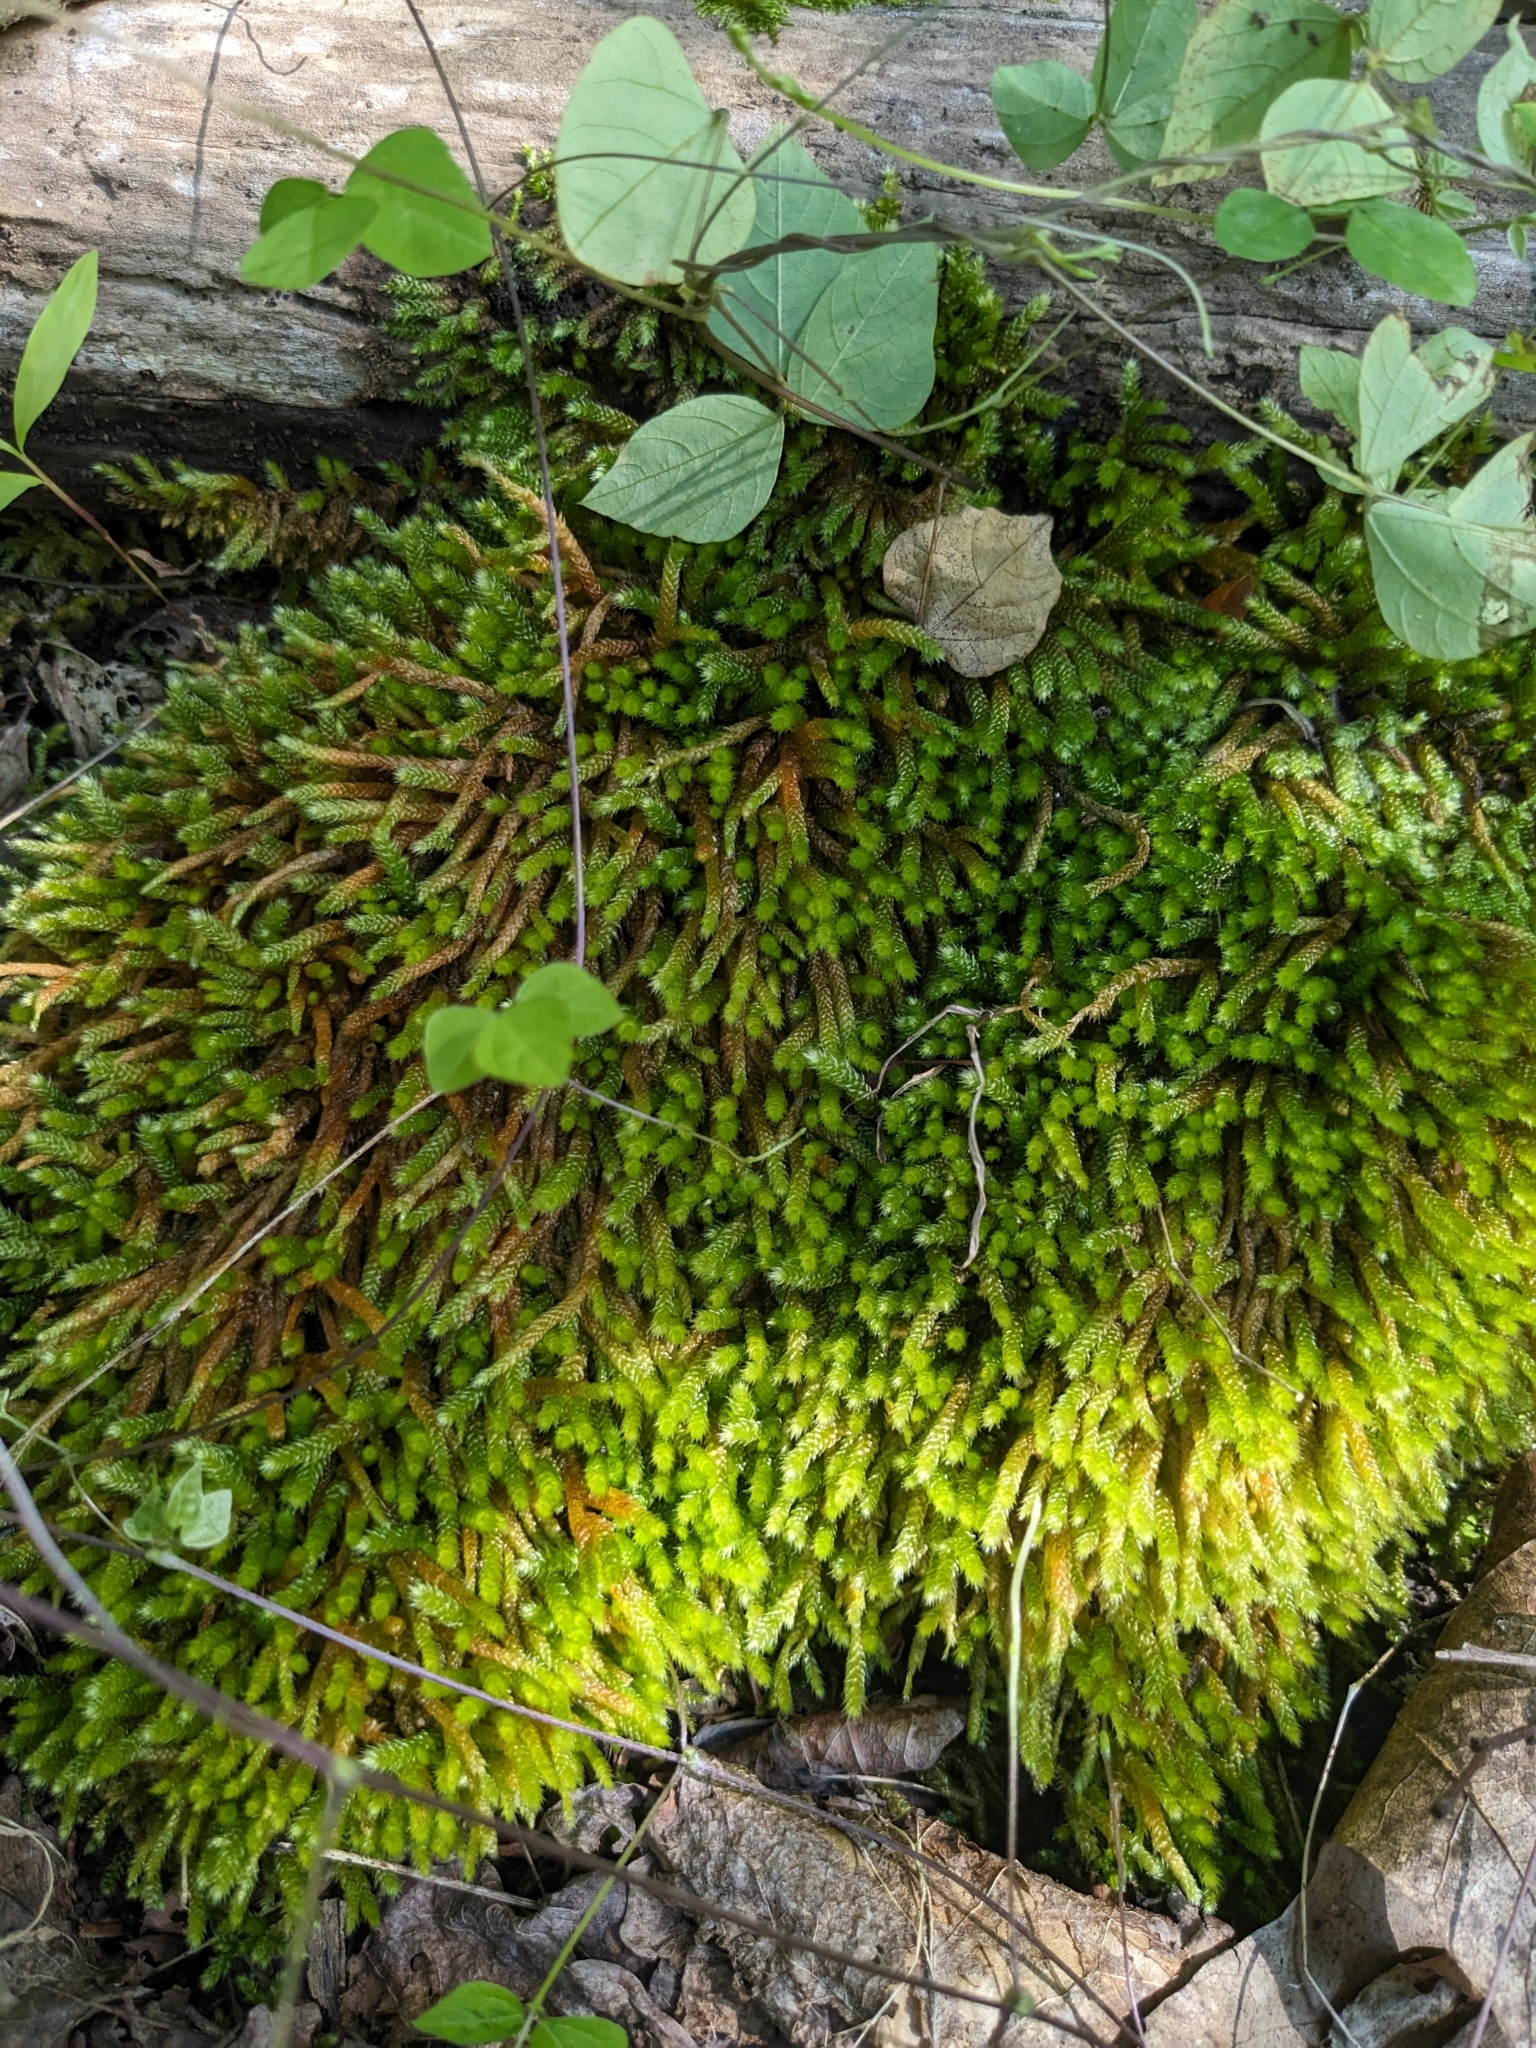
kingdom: Plantae
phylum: Bryophyta
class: Bryopsida
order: Hypnales
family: Brachytheciaceae
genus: Bryoandersonia
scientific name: Bryoandersonia illecebra
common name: Spoon-leaved moss
